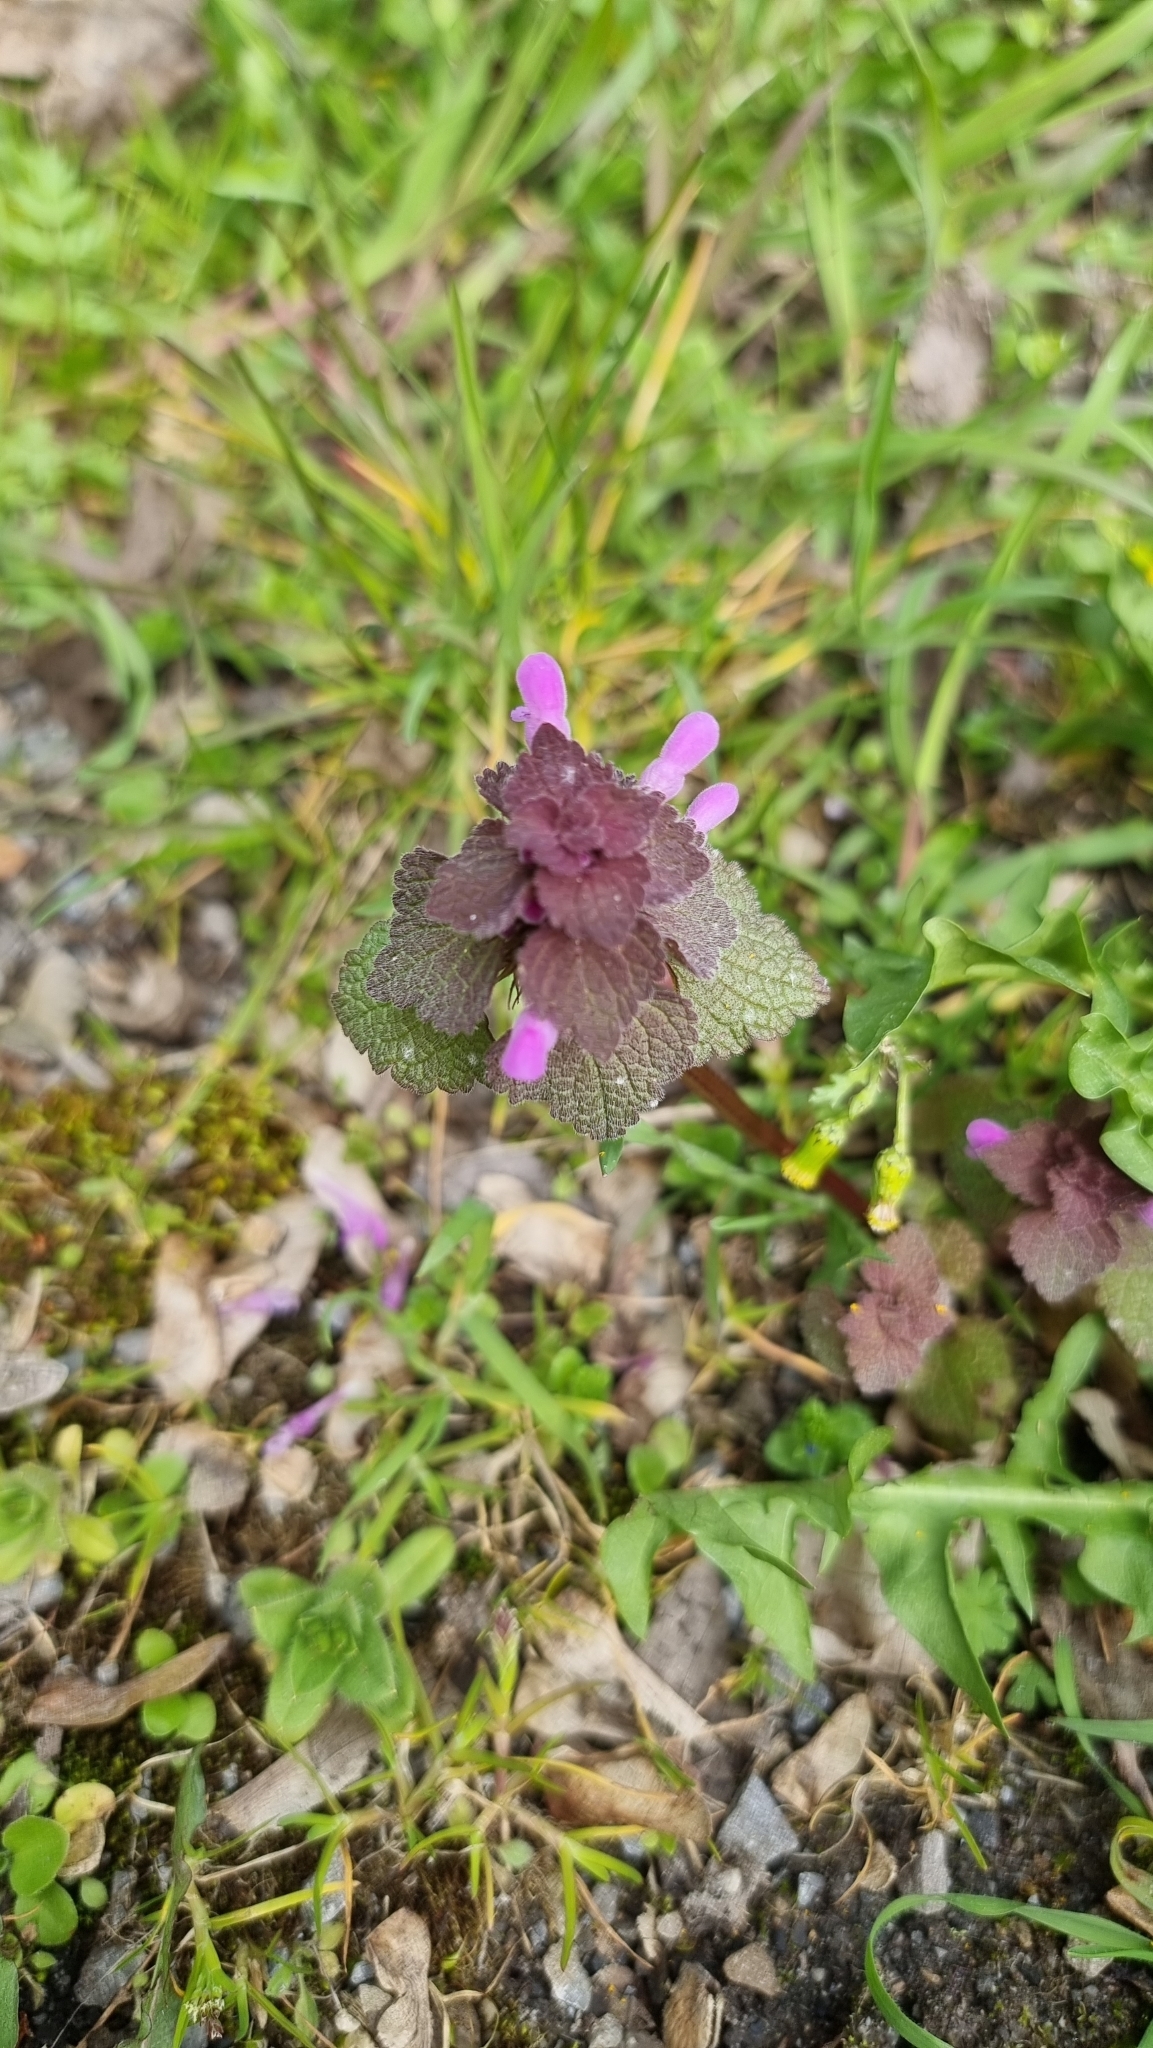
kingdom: Plantae
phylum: Tracheophyta
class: Magnoliopsida
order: Lamiales
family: Lamiaceae
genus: Lamium
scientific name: Lamium purpureum
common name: Red dead-nettle
